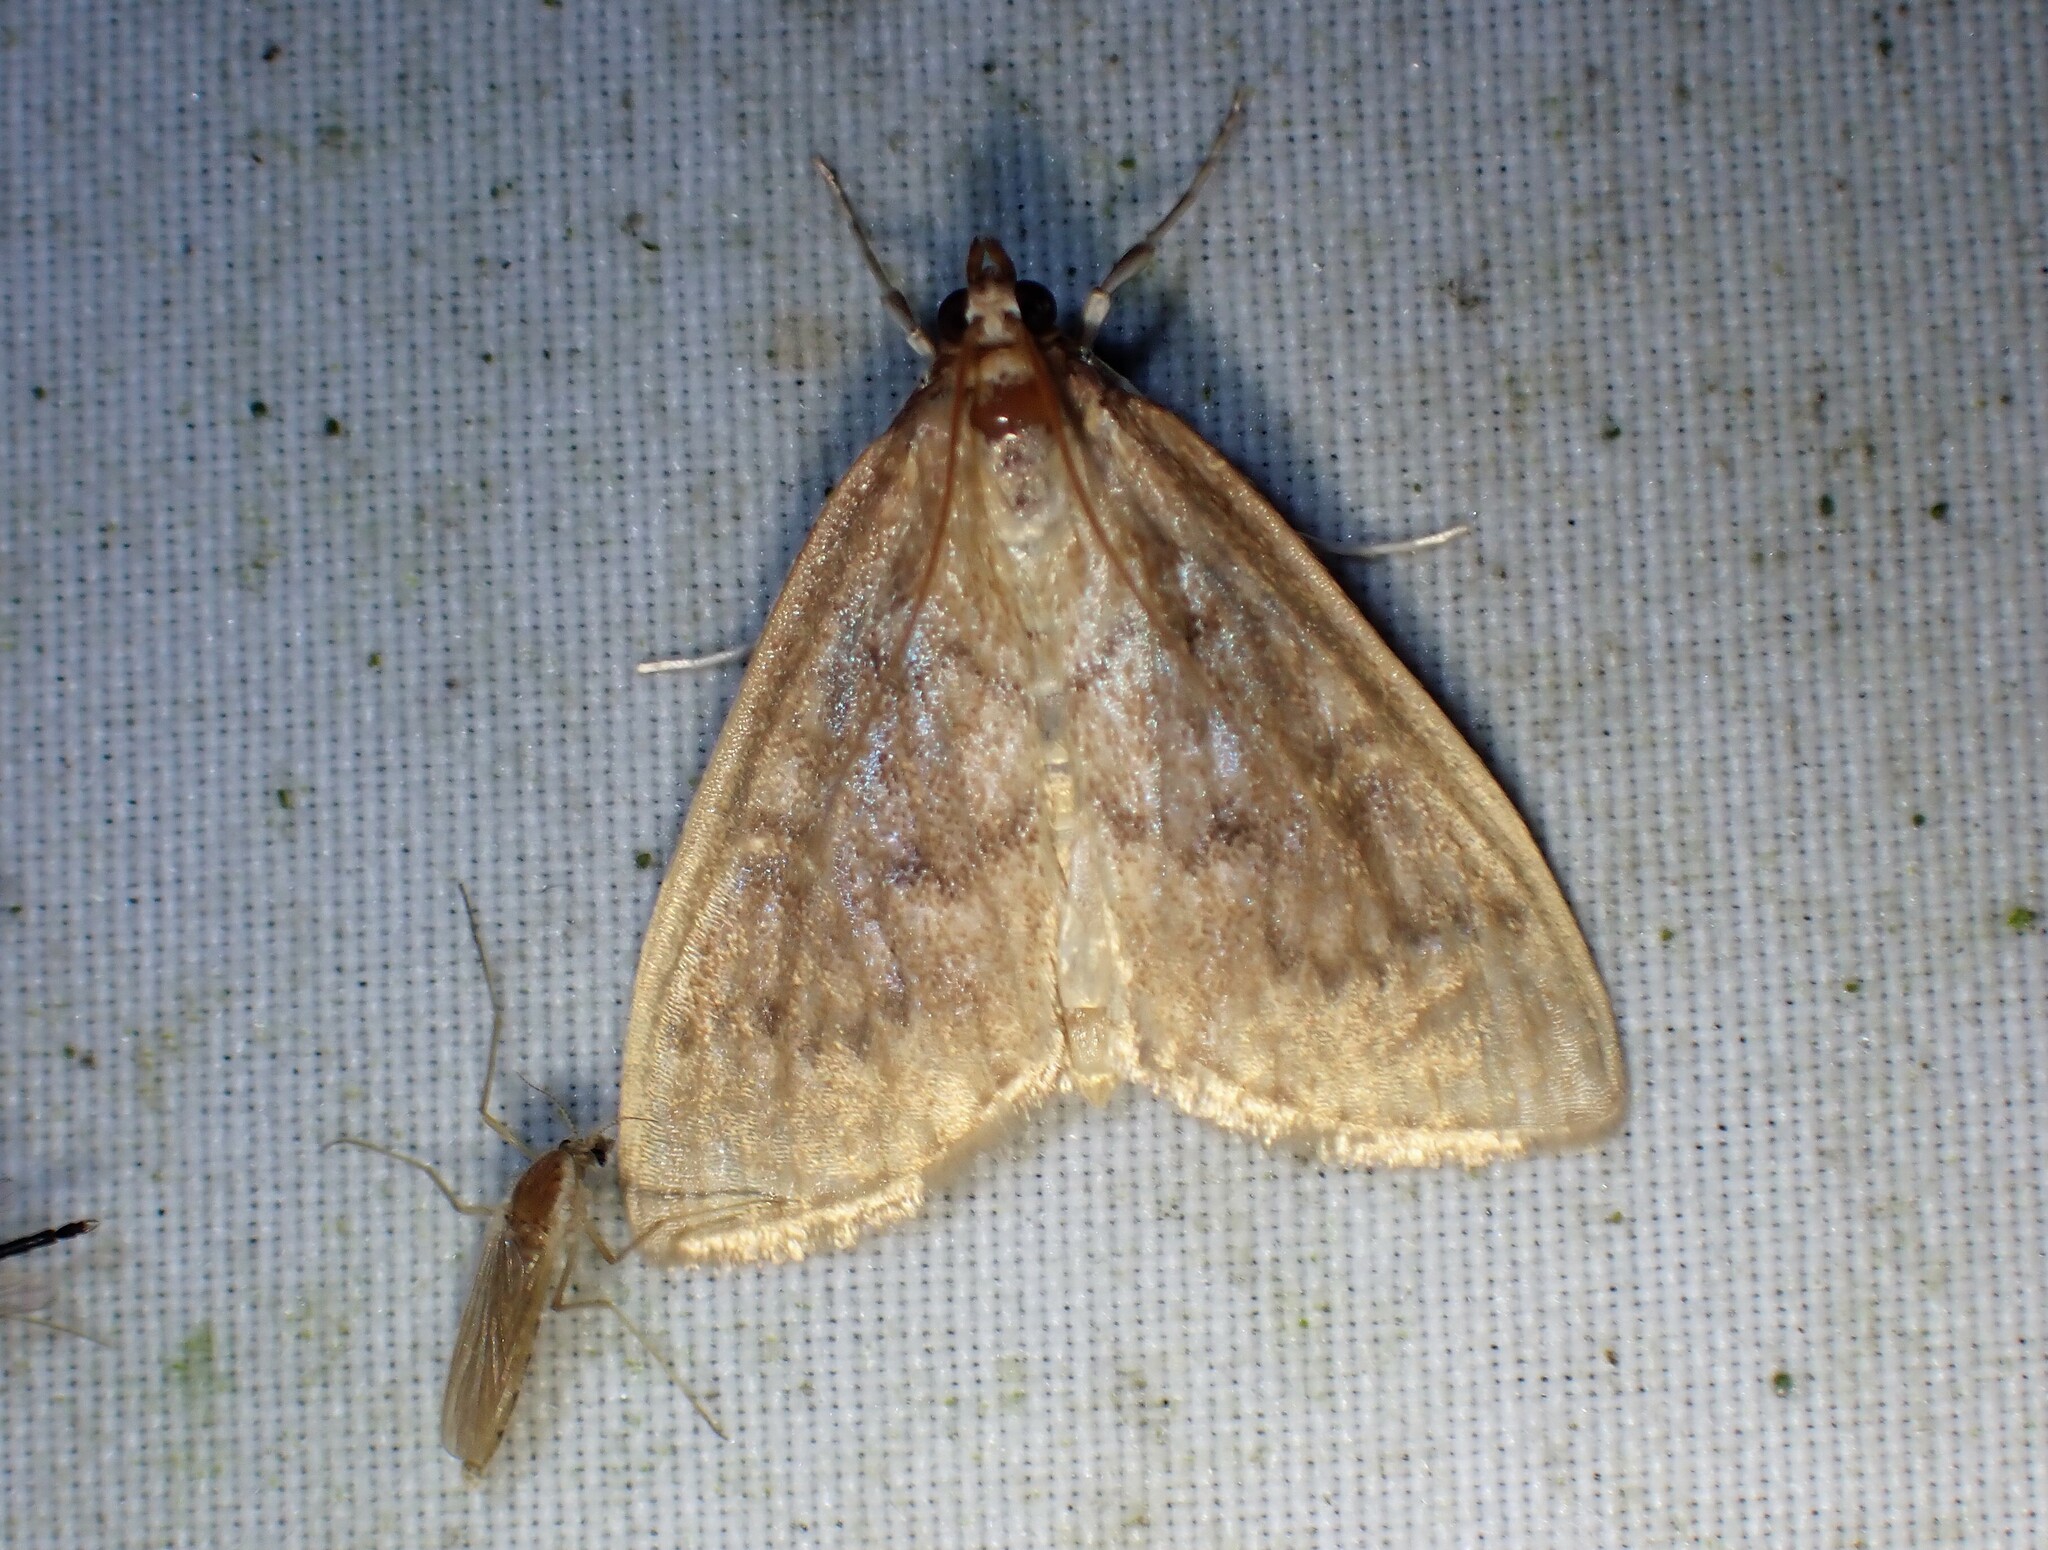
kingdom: Animalia
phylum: Arthropoda
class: Insecta
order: Lepidoptera
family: Crambidae
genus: Anania
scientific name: Anania Framinghamia helvalis
